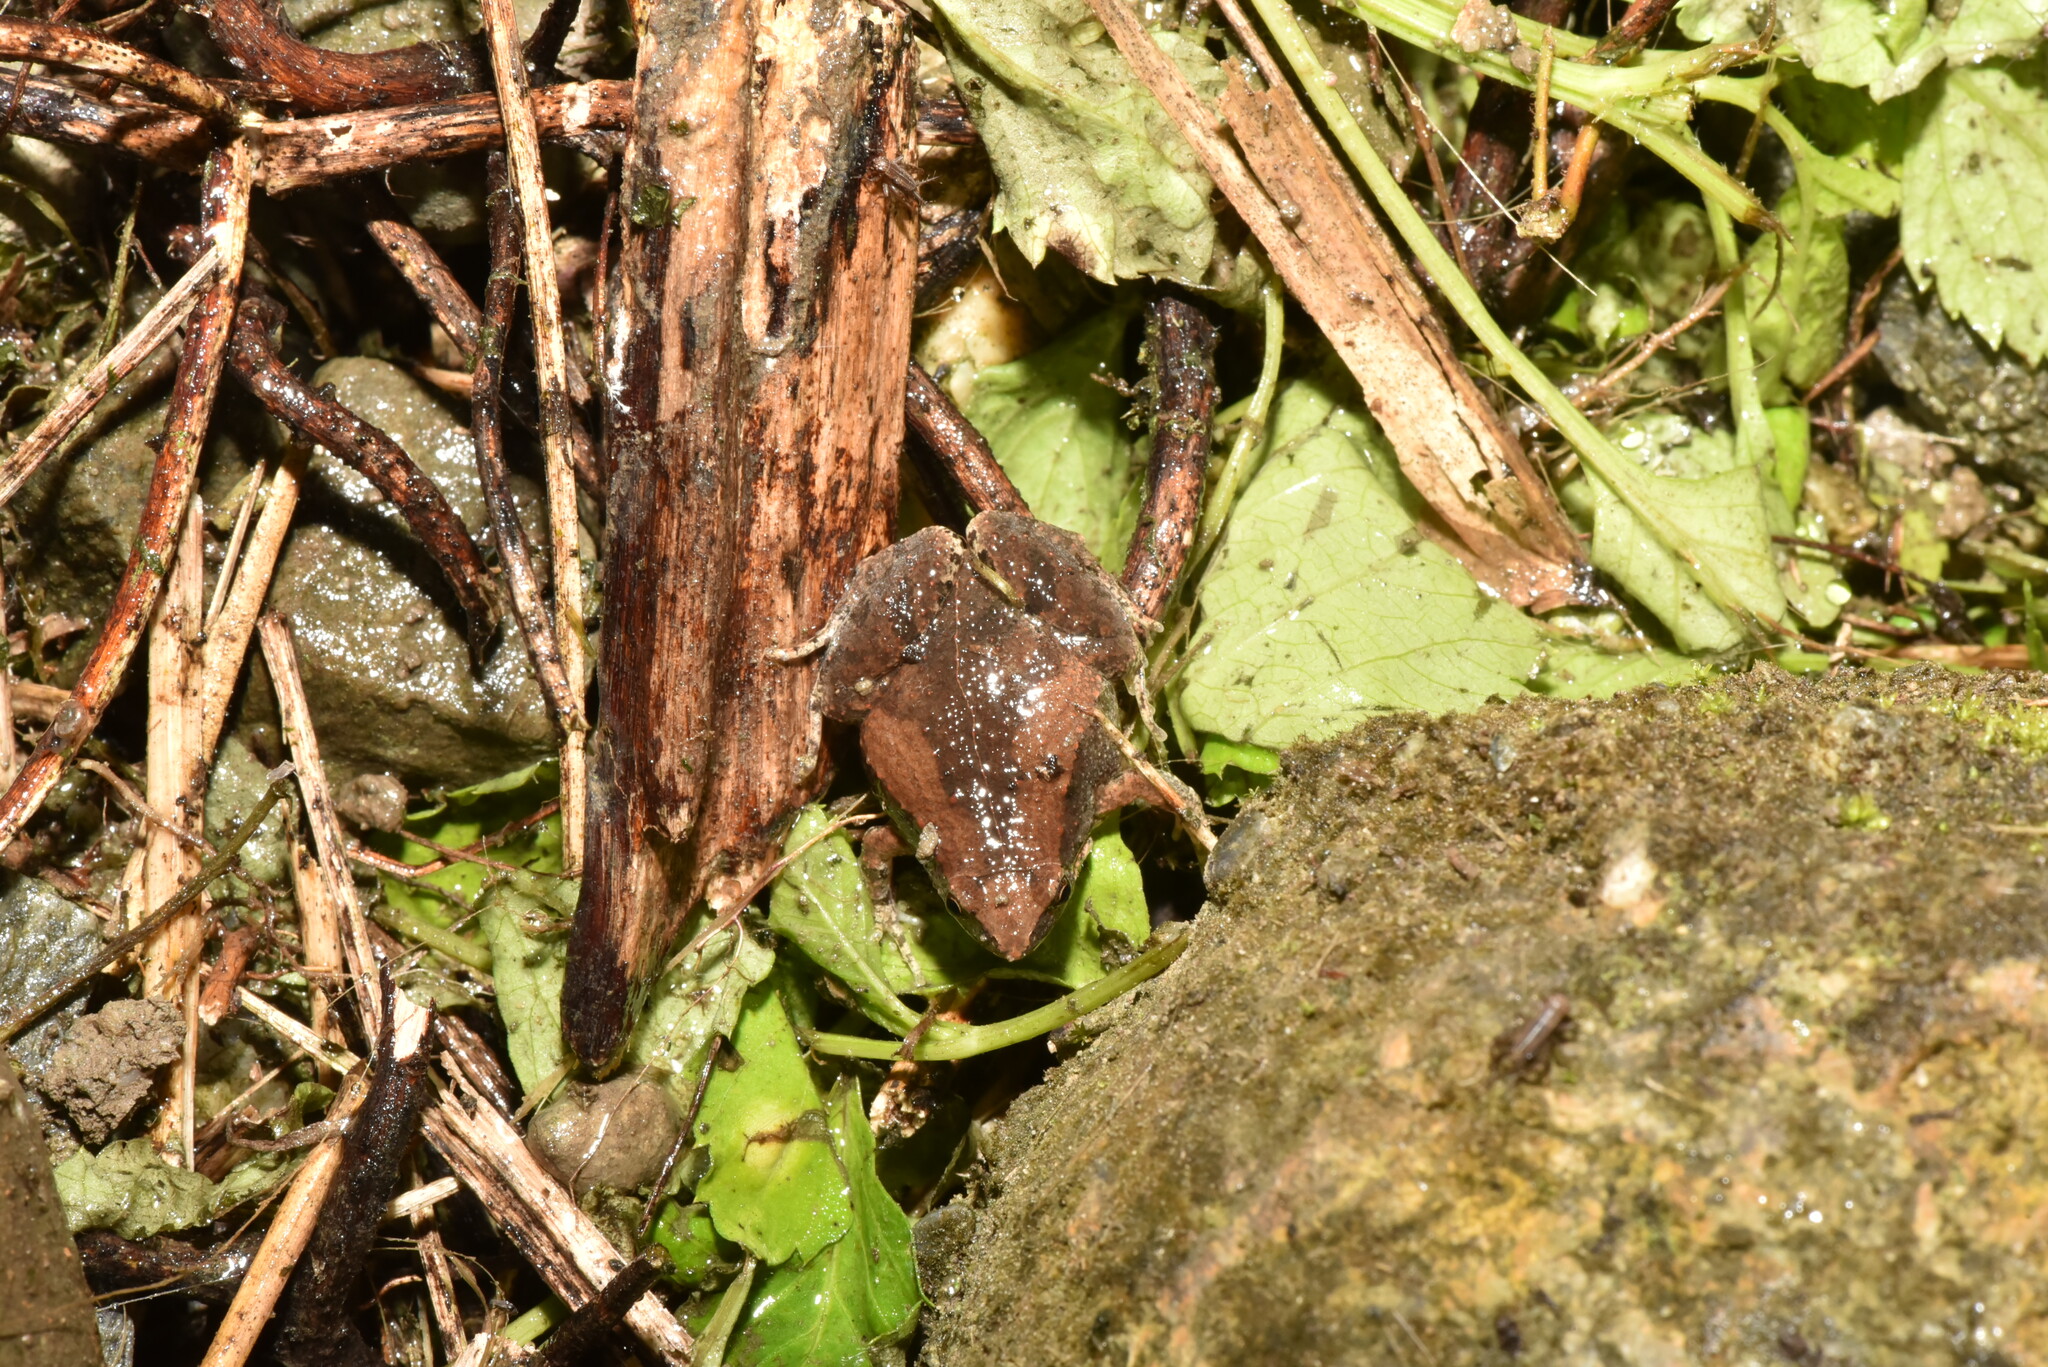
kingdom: Animalia
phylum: Chordata
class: Amphibia
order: Anura
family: Microhylidae
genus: Microhyla
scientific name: Microhyla fissipes
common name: Ornate narrow-mouthed frog
